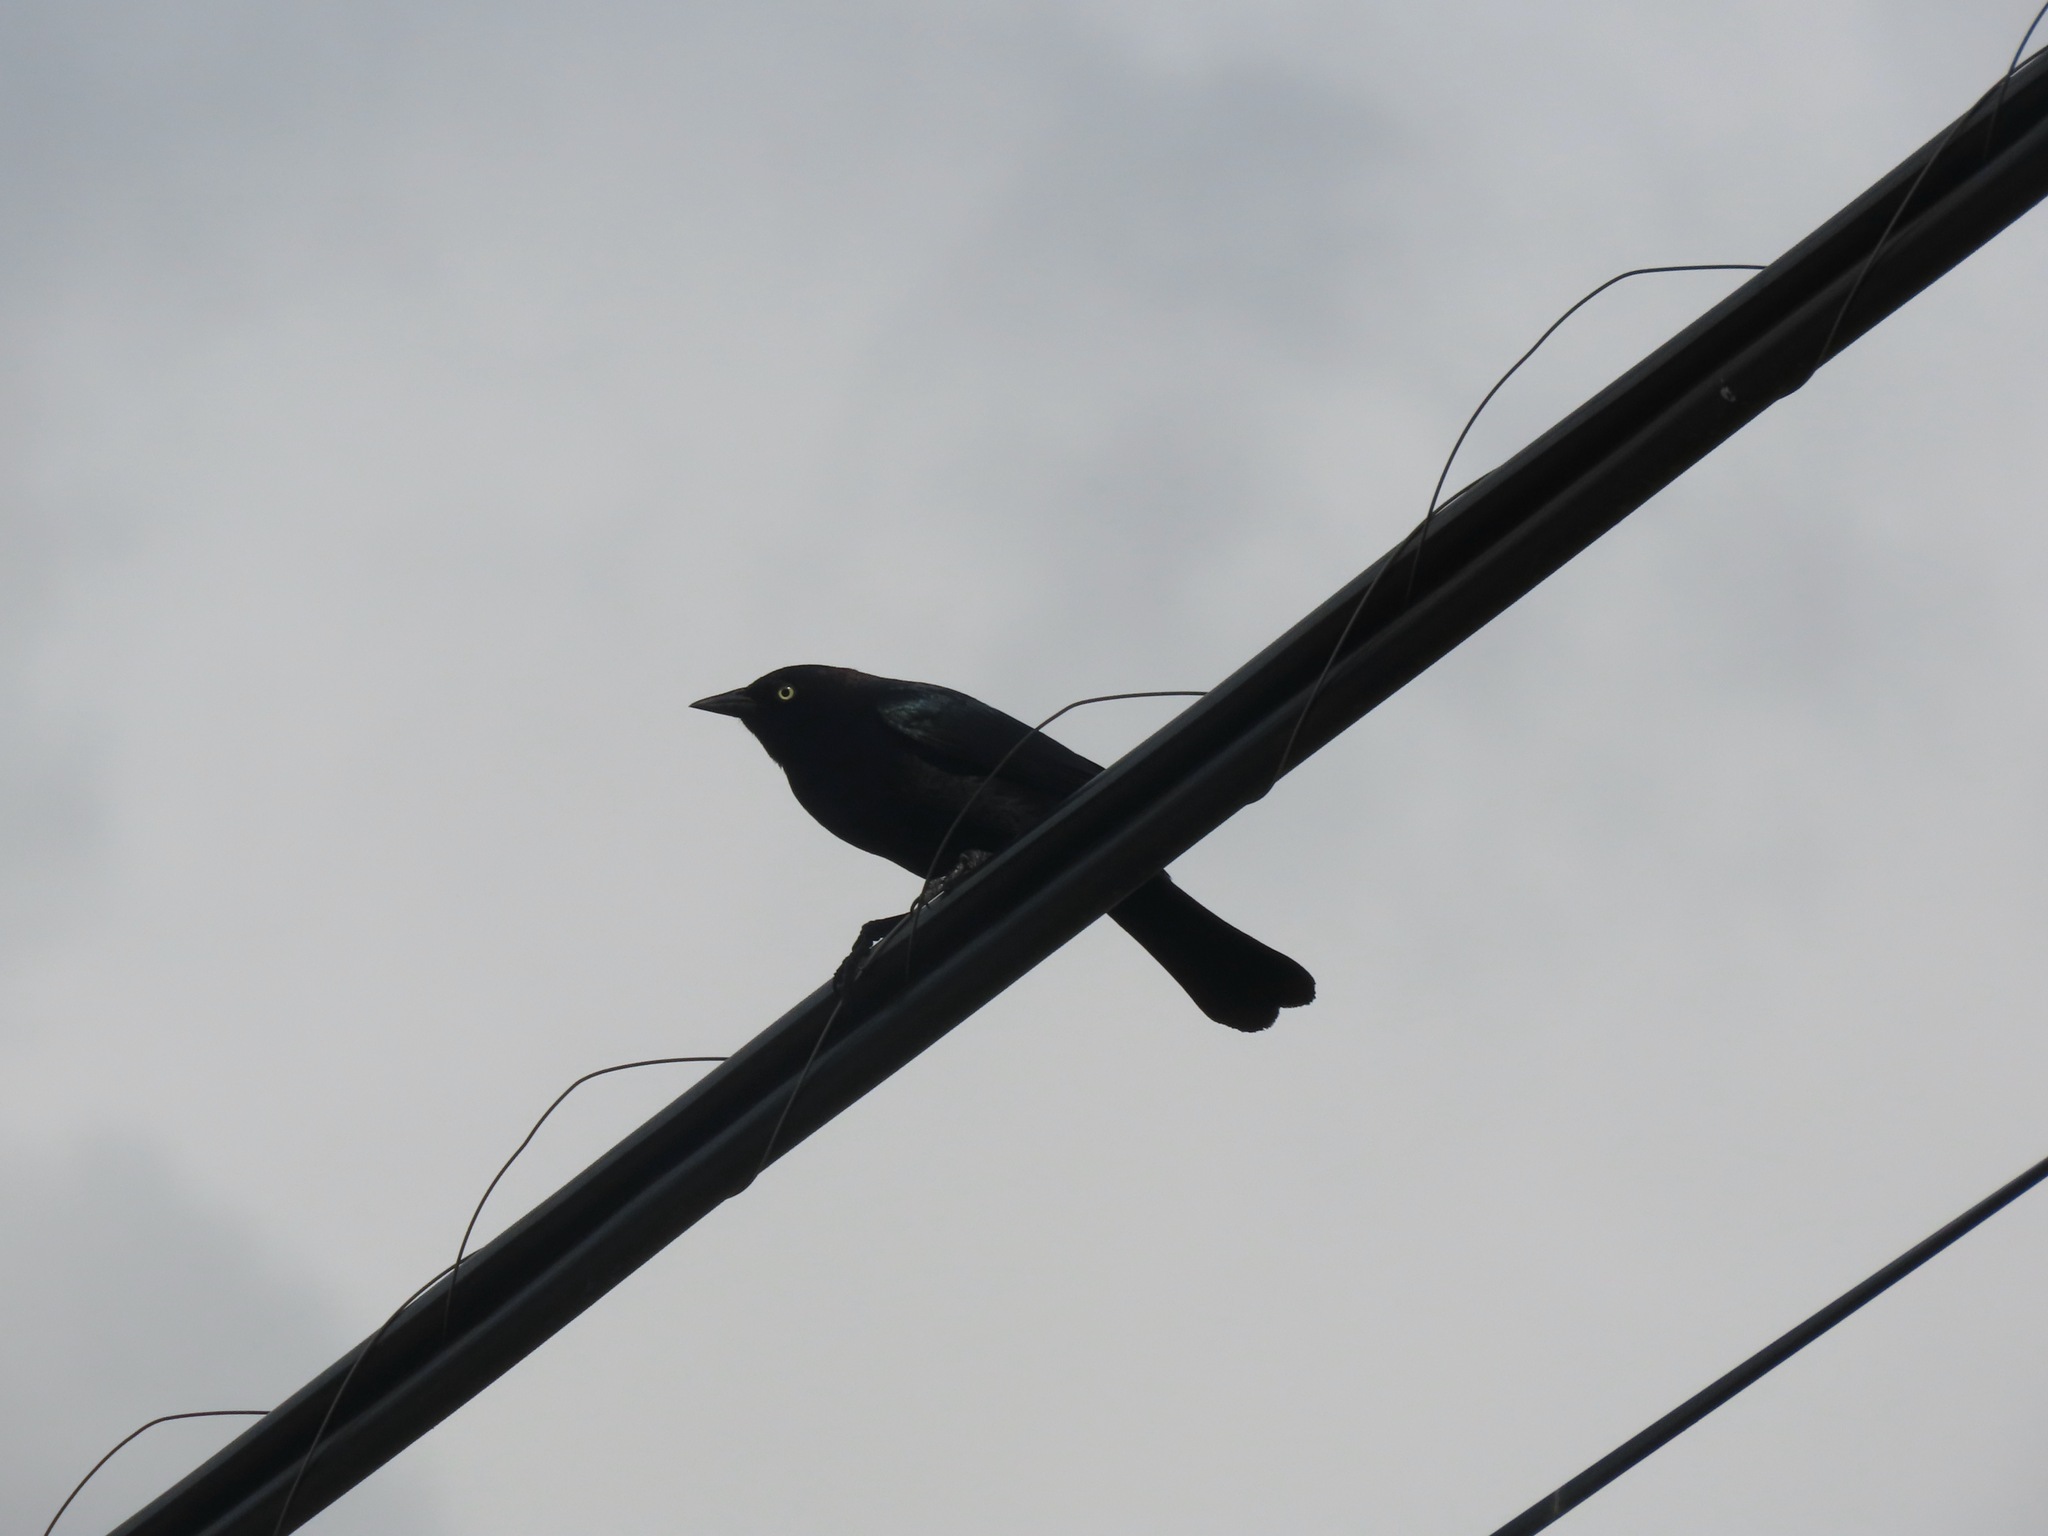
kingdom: Animalia
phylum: Chordata
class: Aves
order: Passeriformes
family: Icteridae
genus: Euphagus
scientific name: Euphagus cyanocephalus
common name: Brewer's blackbird
